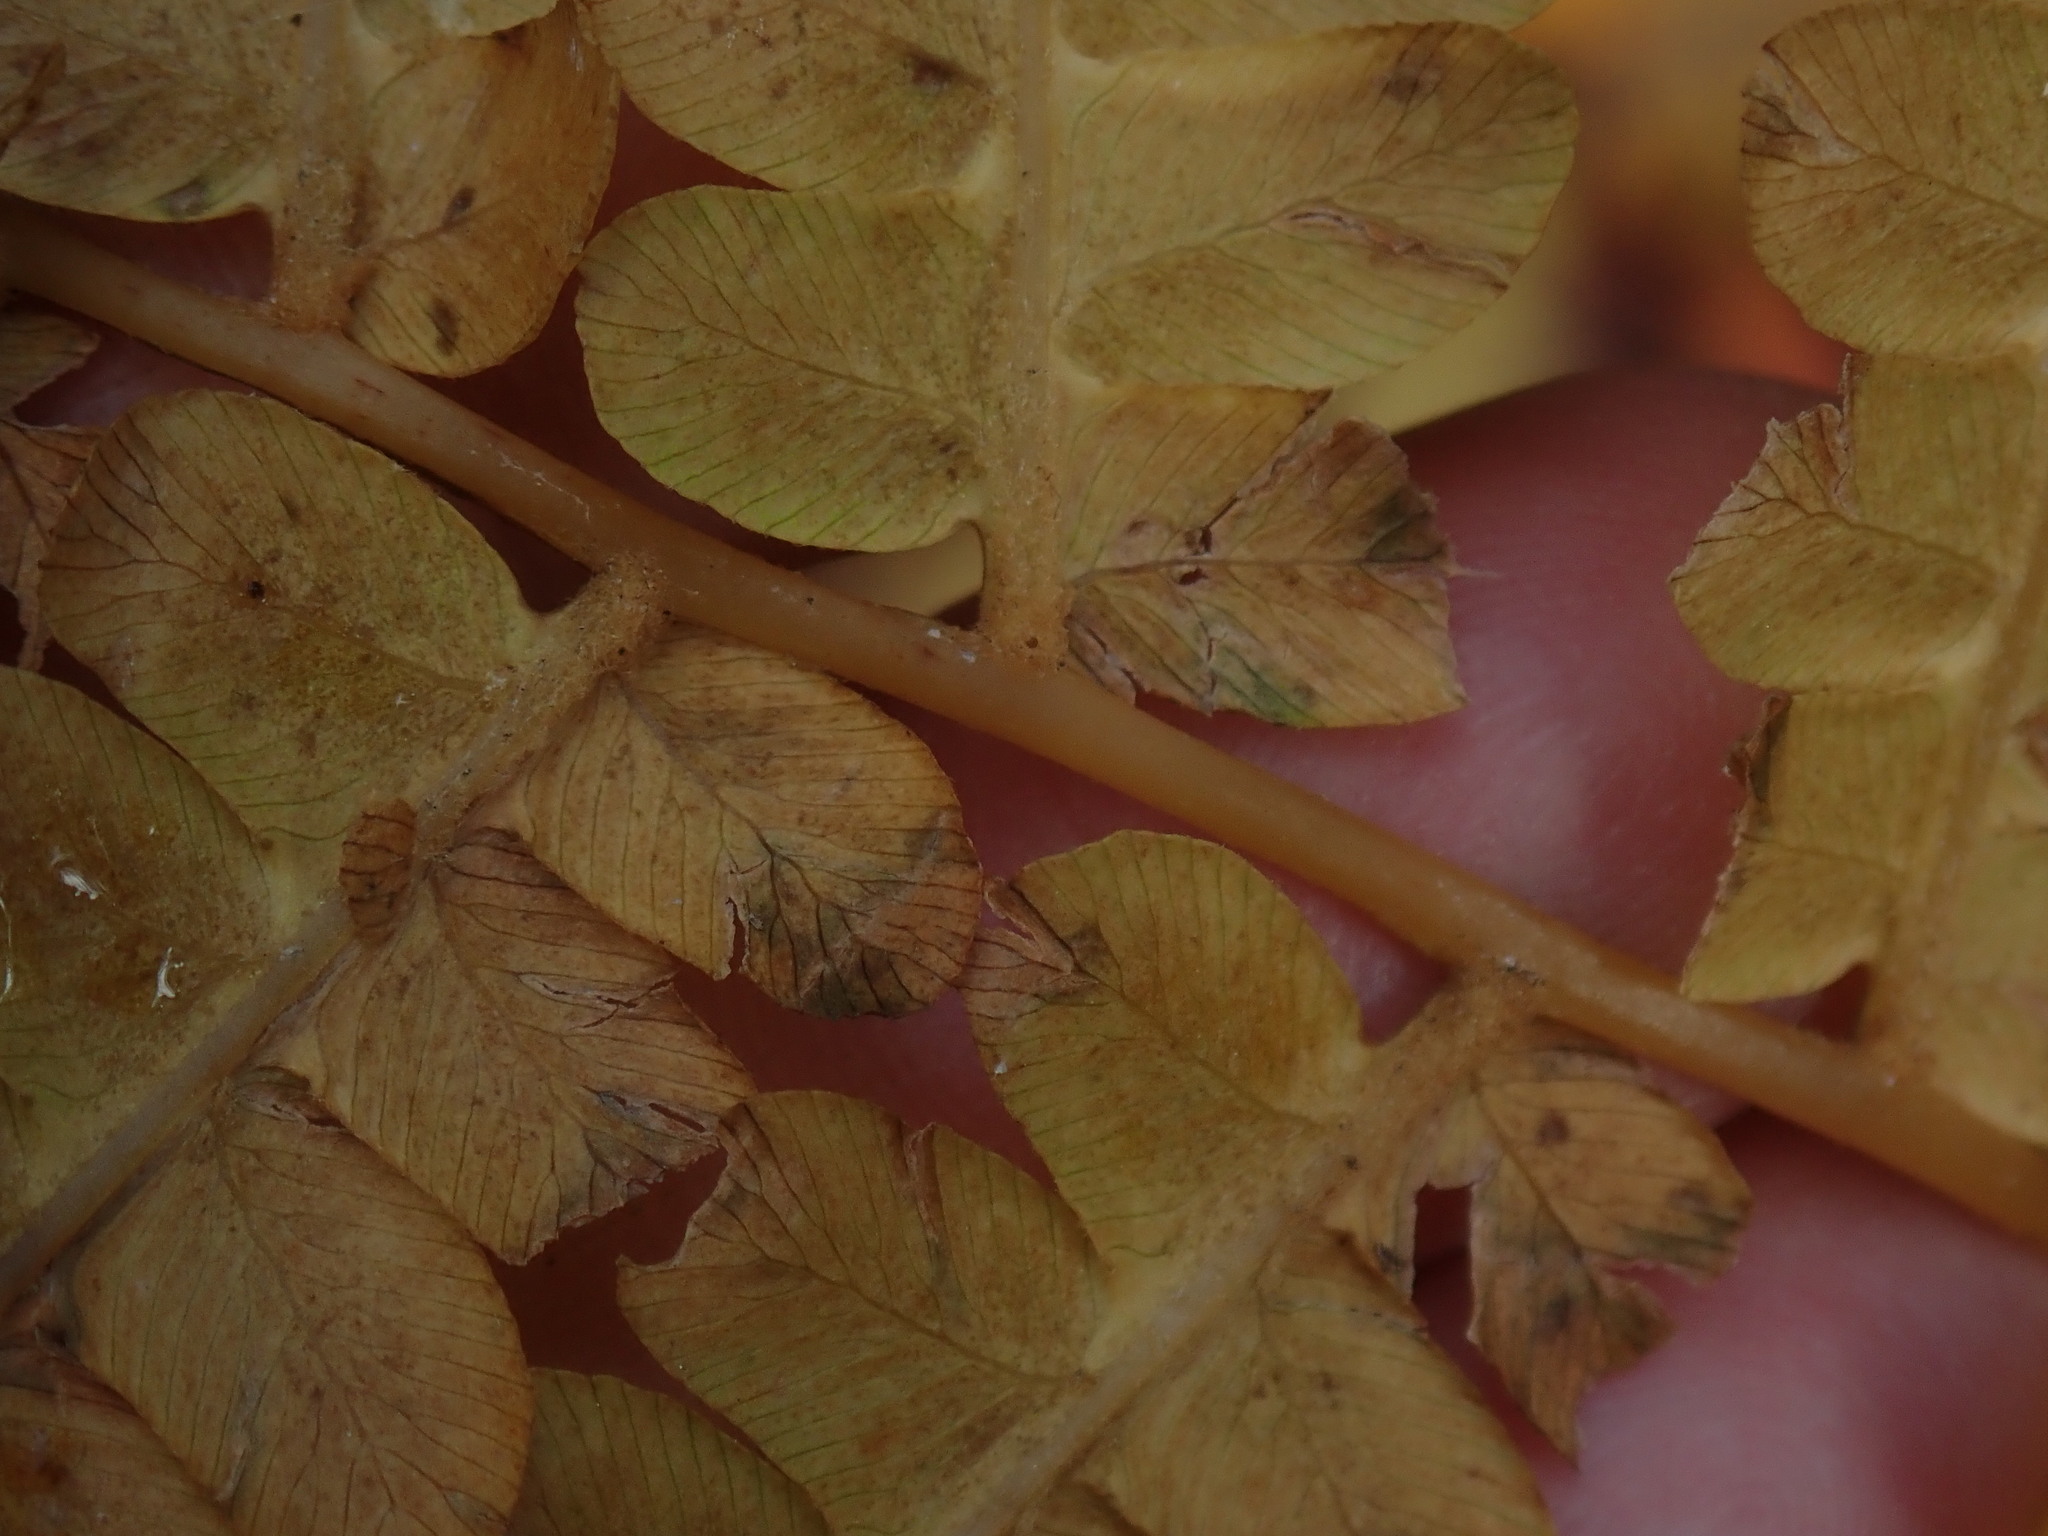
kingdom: Plantae
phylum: Tracheophyta
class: Polypodiopsida
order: Osmundales
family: Osmundaceae
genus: Osmundastrum
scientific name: Osmundastrum cinnamomeum
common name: Cinnamon fern
